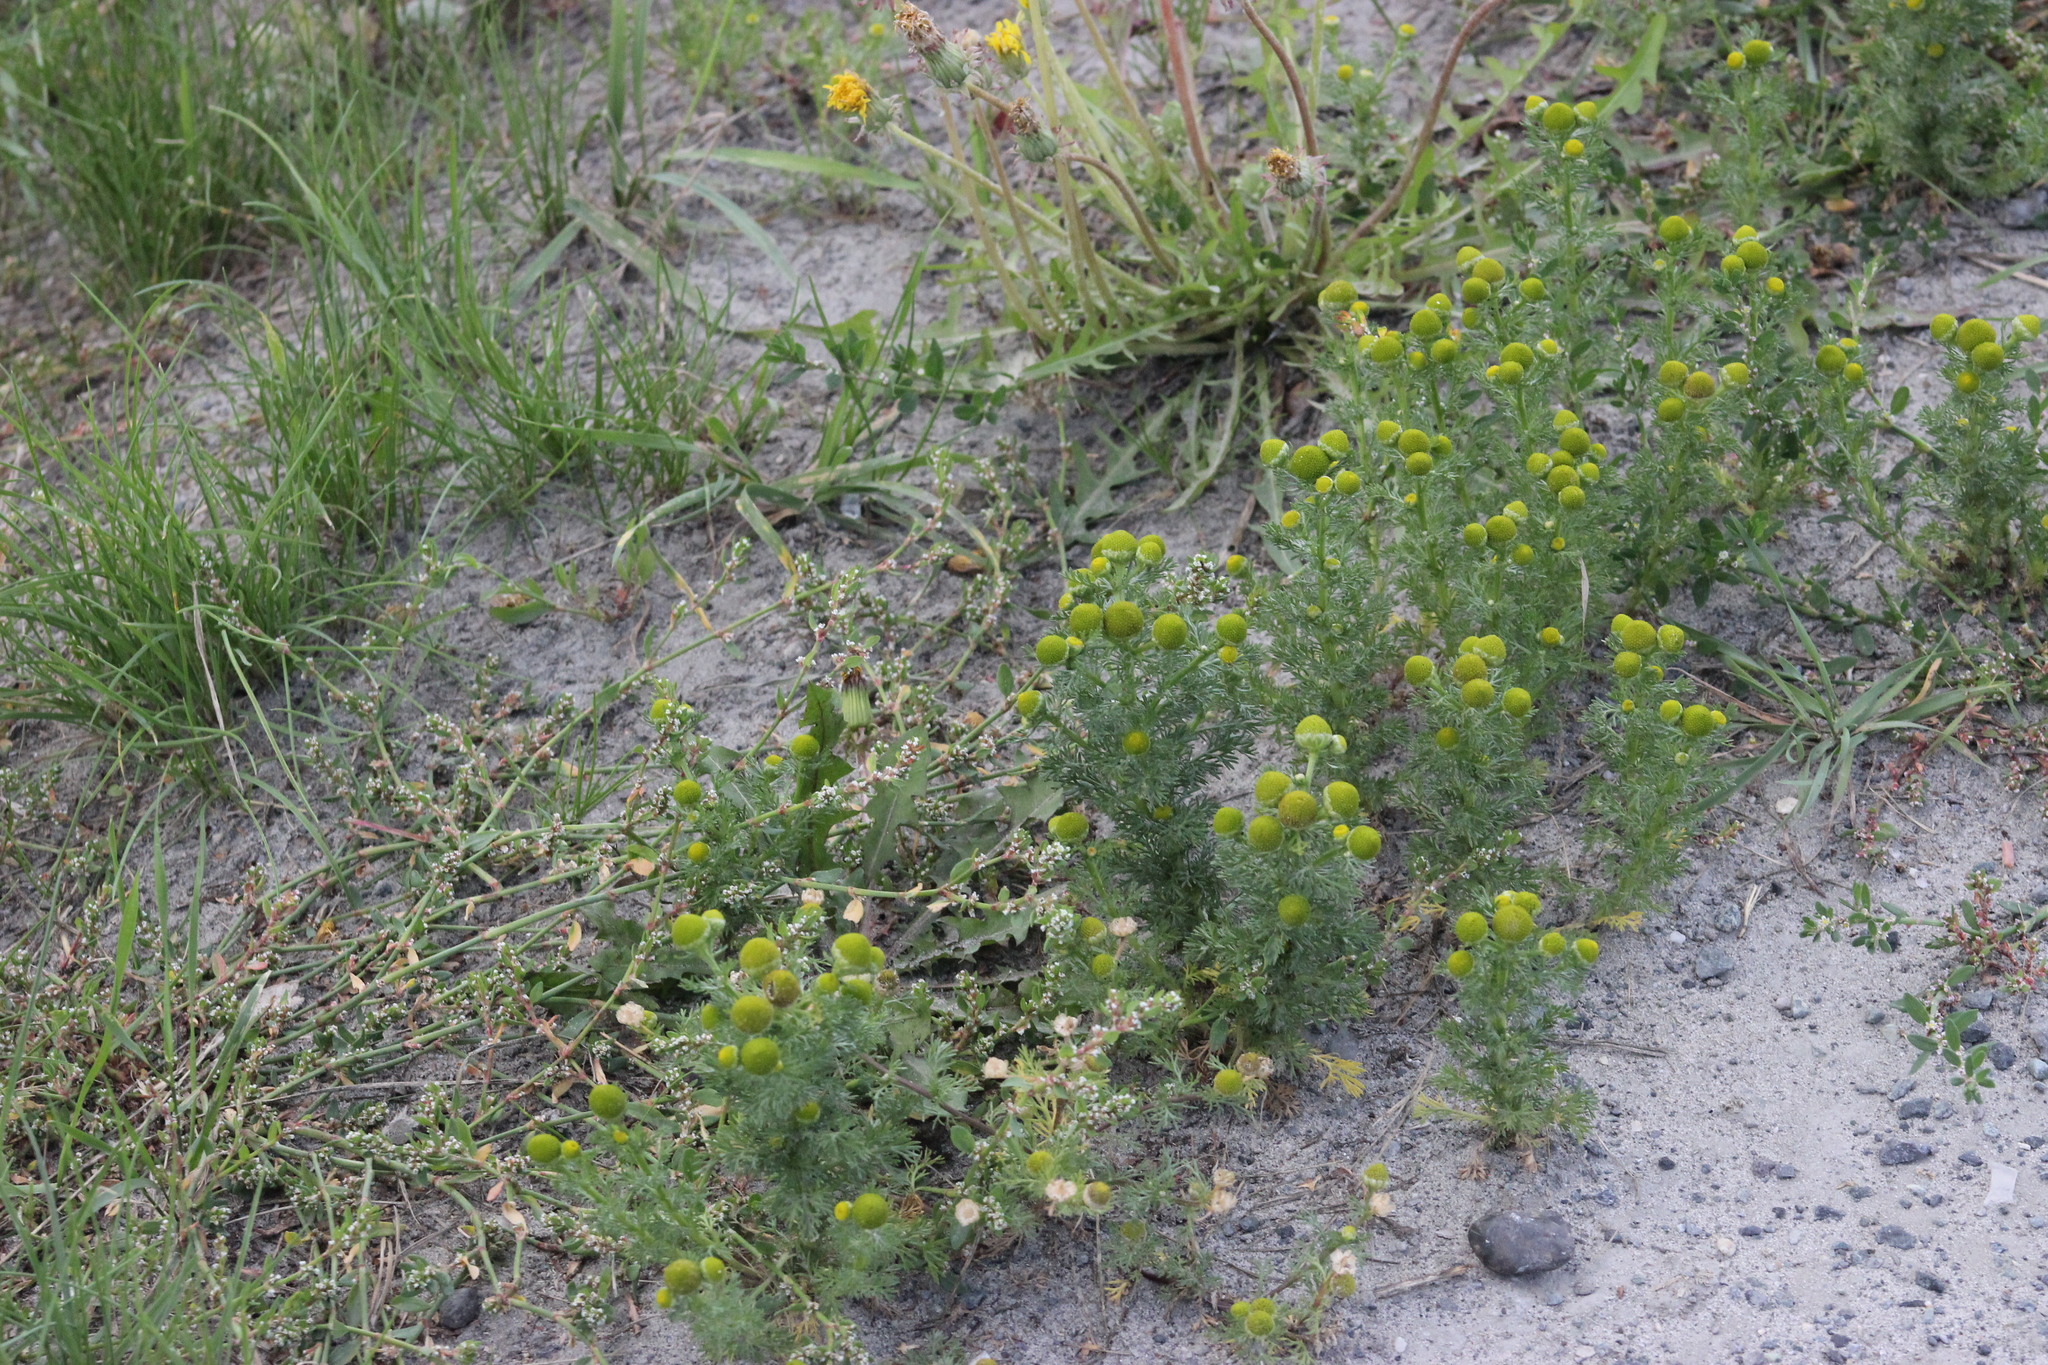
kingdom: Plantae
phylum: Tracheophyta
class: Magnoliopsida
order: Asterales
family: Asteraceae
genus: Matricaria
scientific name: Matricaria discoidea
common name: Disc mayweed
